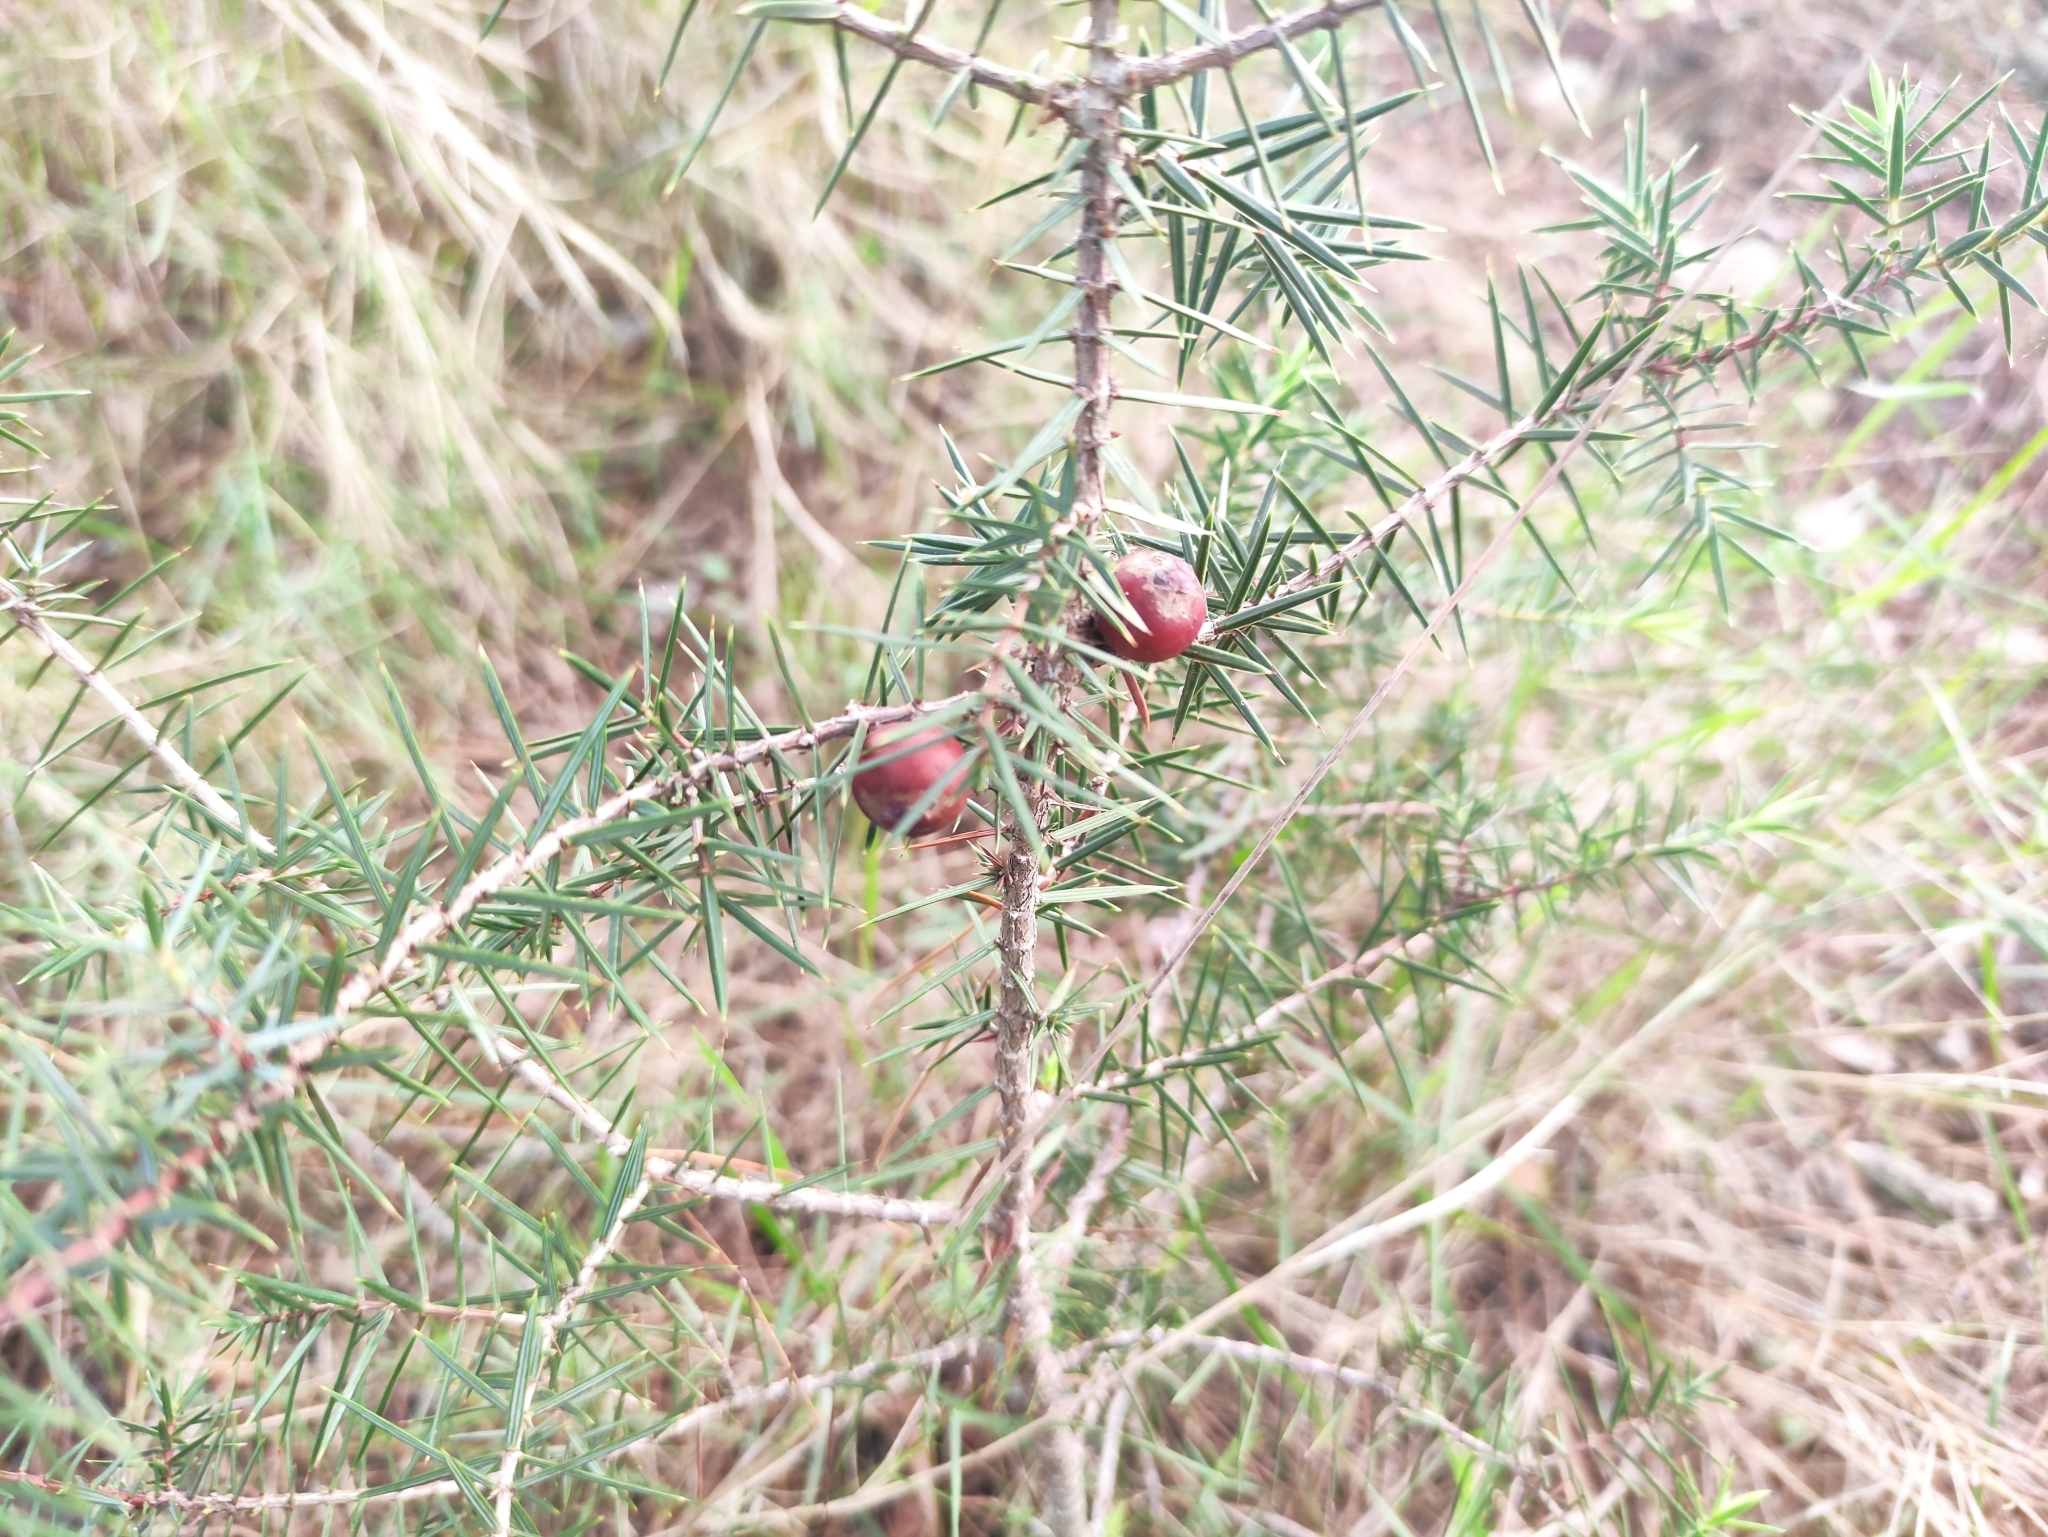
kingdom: Plantae
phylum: Tracheophyta
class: Pinopsida
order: Pinales
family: Cupressaceae
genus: Juniperus
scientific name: Juniperus oxycedrus
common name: Prickly juniper
